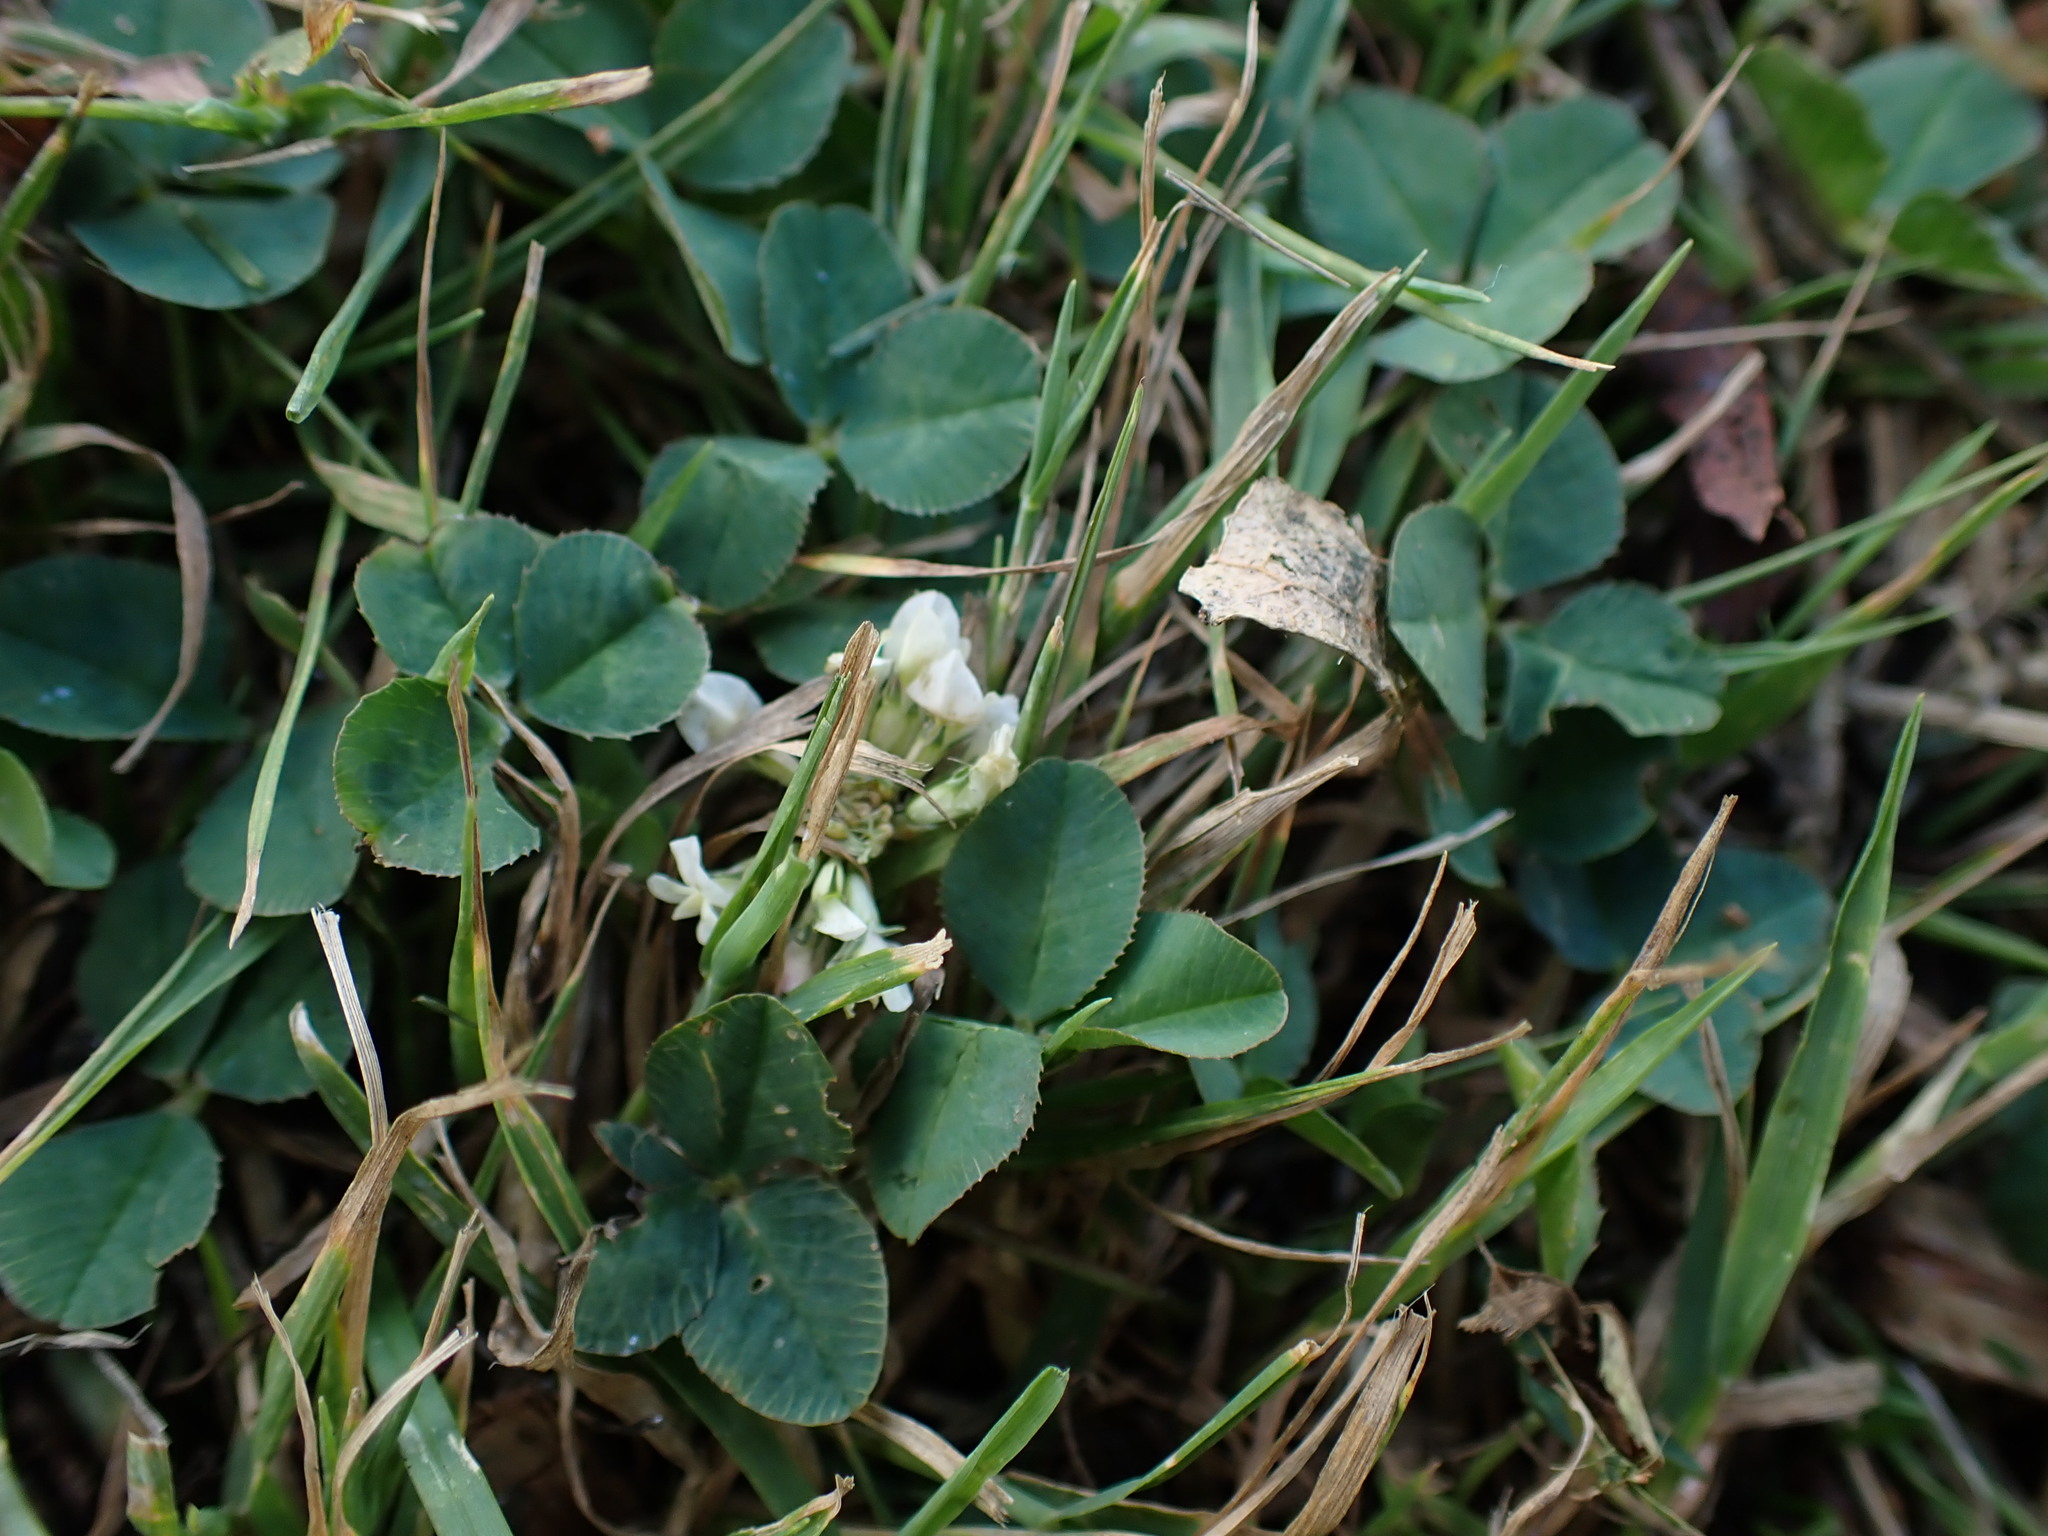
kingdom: Plantae
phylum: Tracheophyta
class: Magnoliopsida
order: Fabales
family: Fabaceae
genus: Trifolium
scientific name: Trifolium repens
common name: White clover
